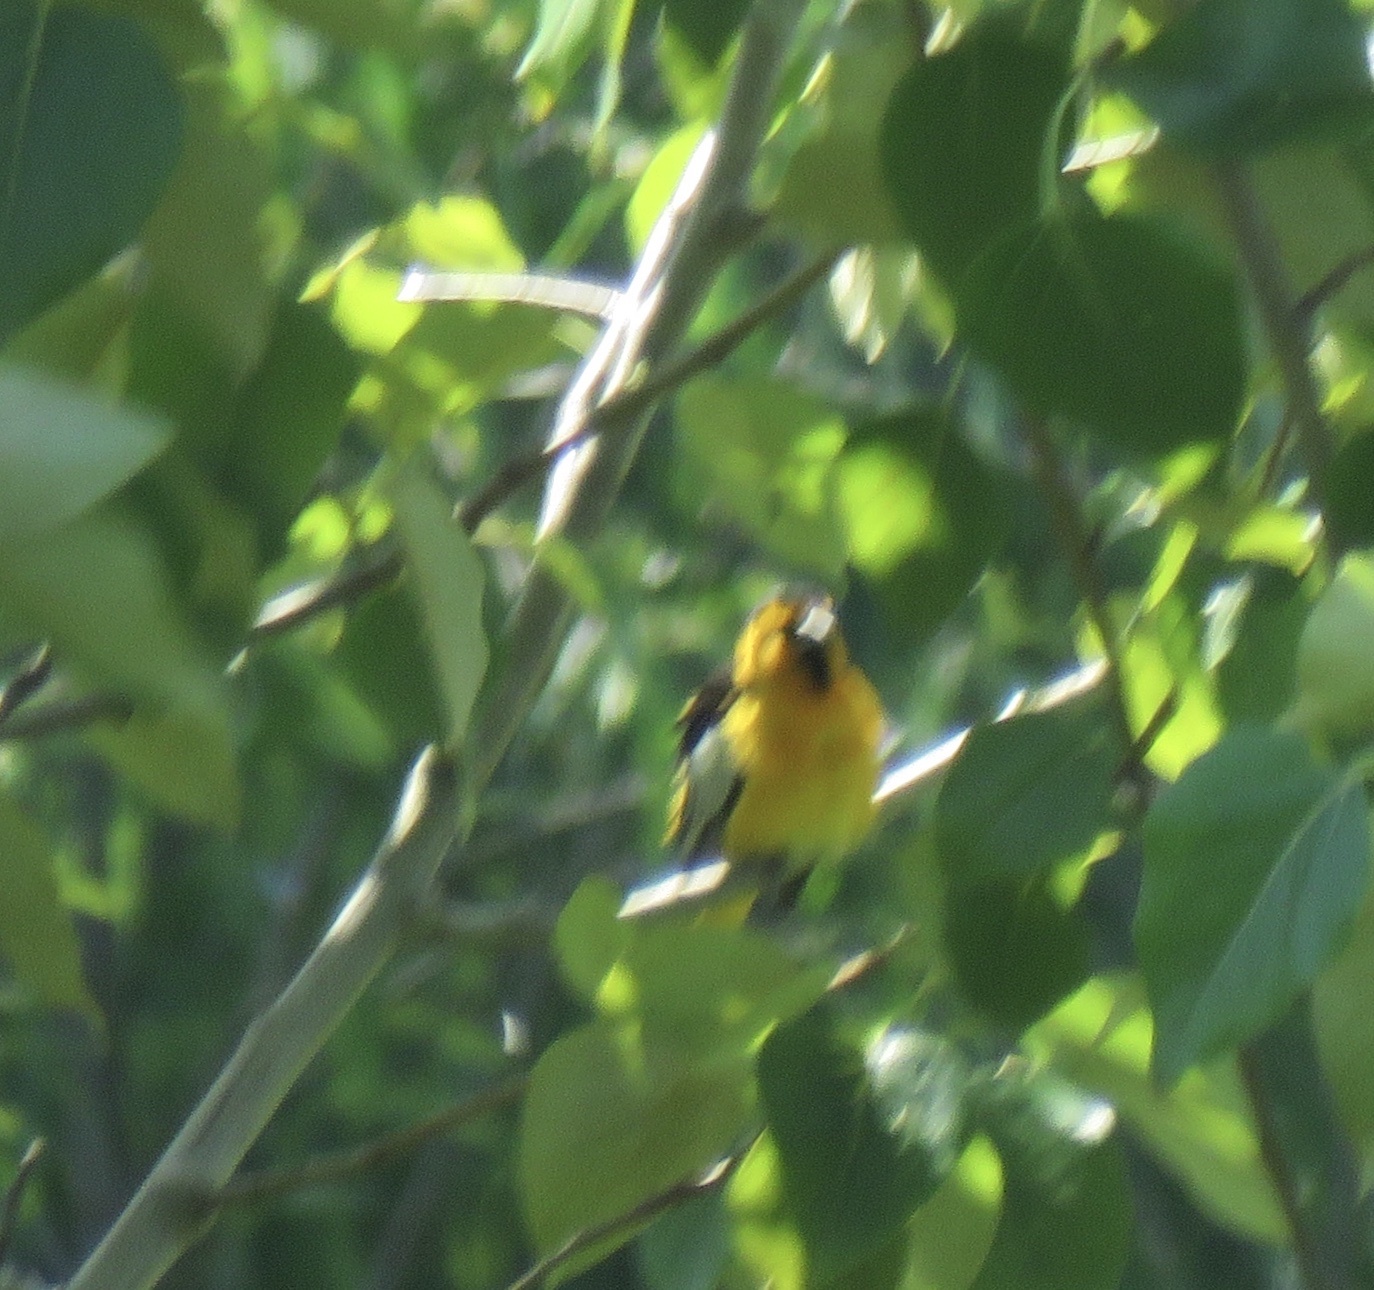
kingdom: Animalia
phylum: Chordata
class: Aves
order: Passeriformes
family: Icteridae
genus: Icterus
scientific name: Icterus bullockii
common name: Bullock's oriole
